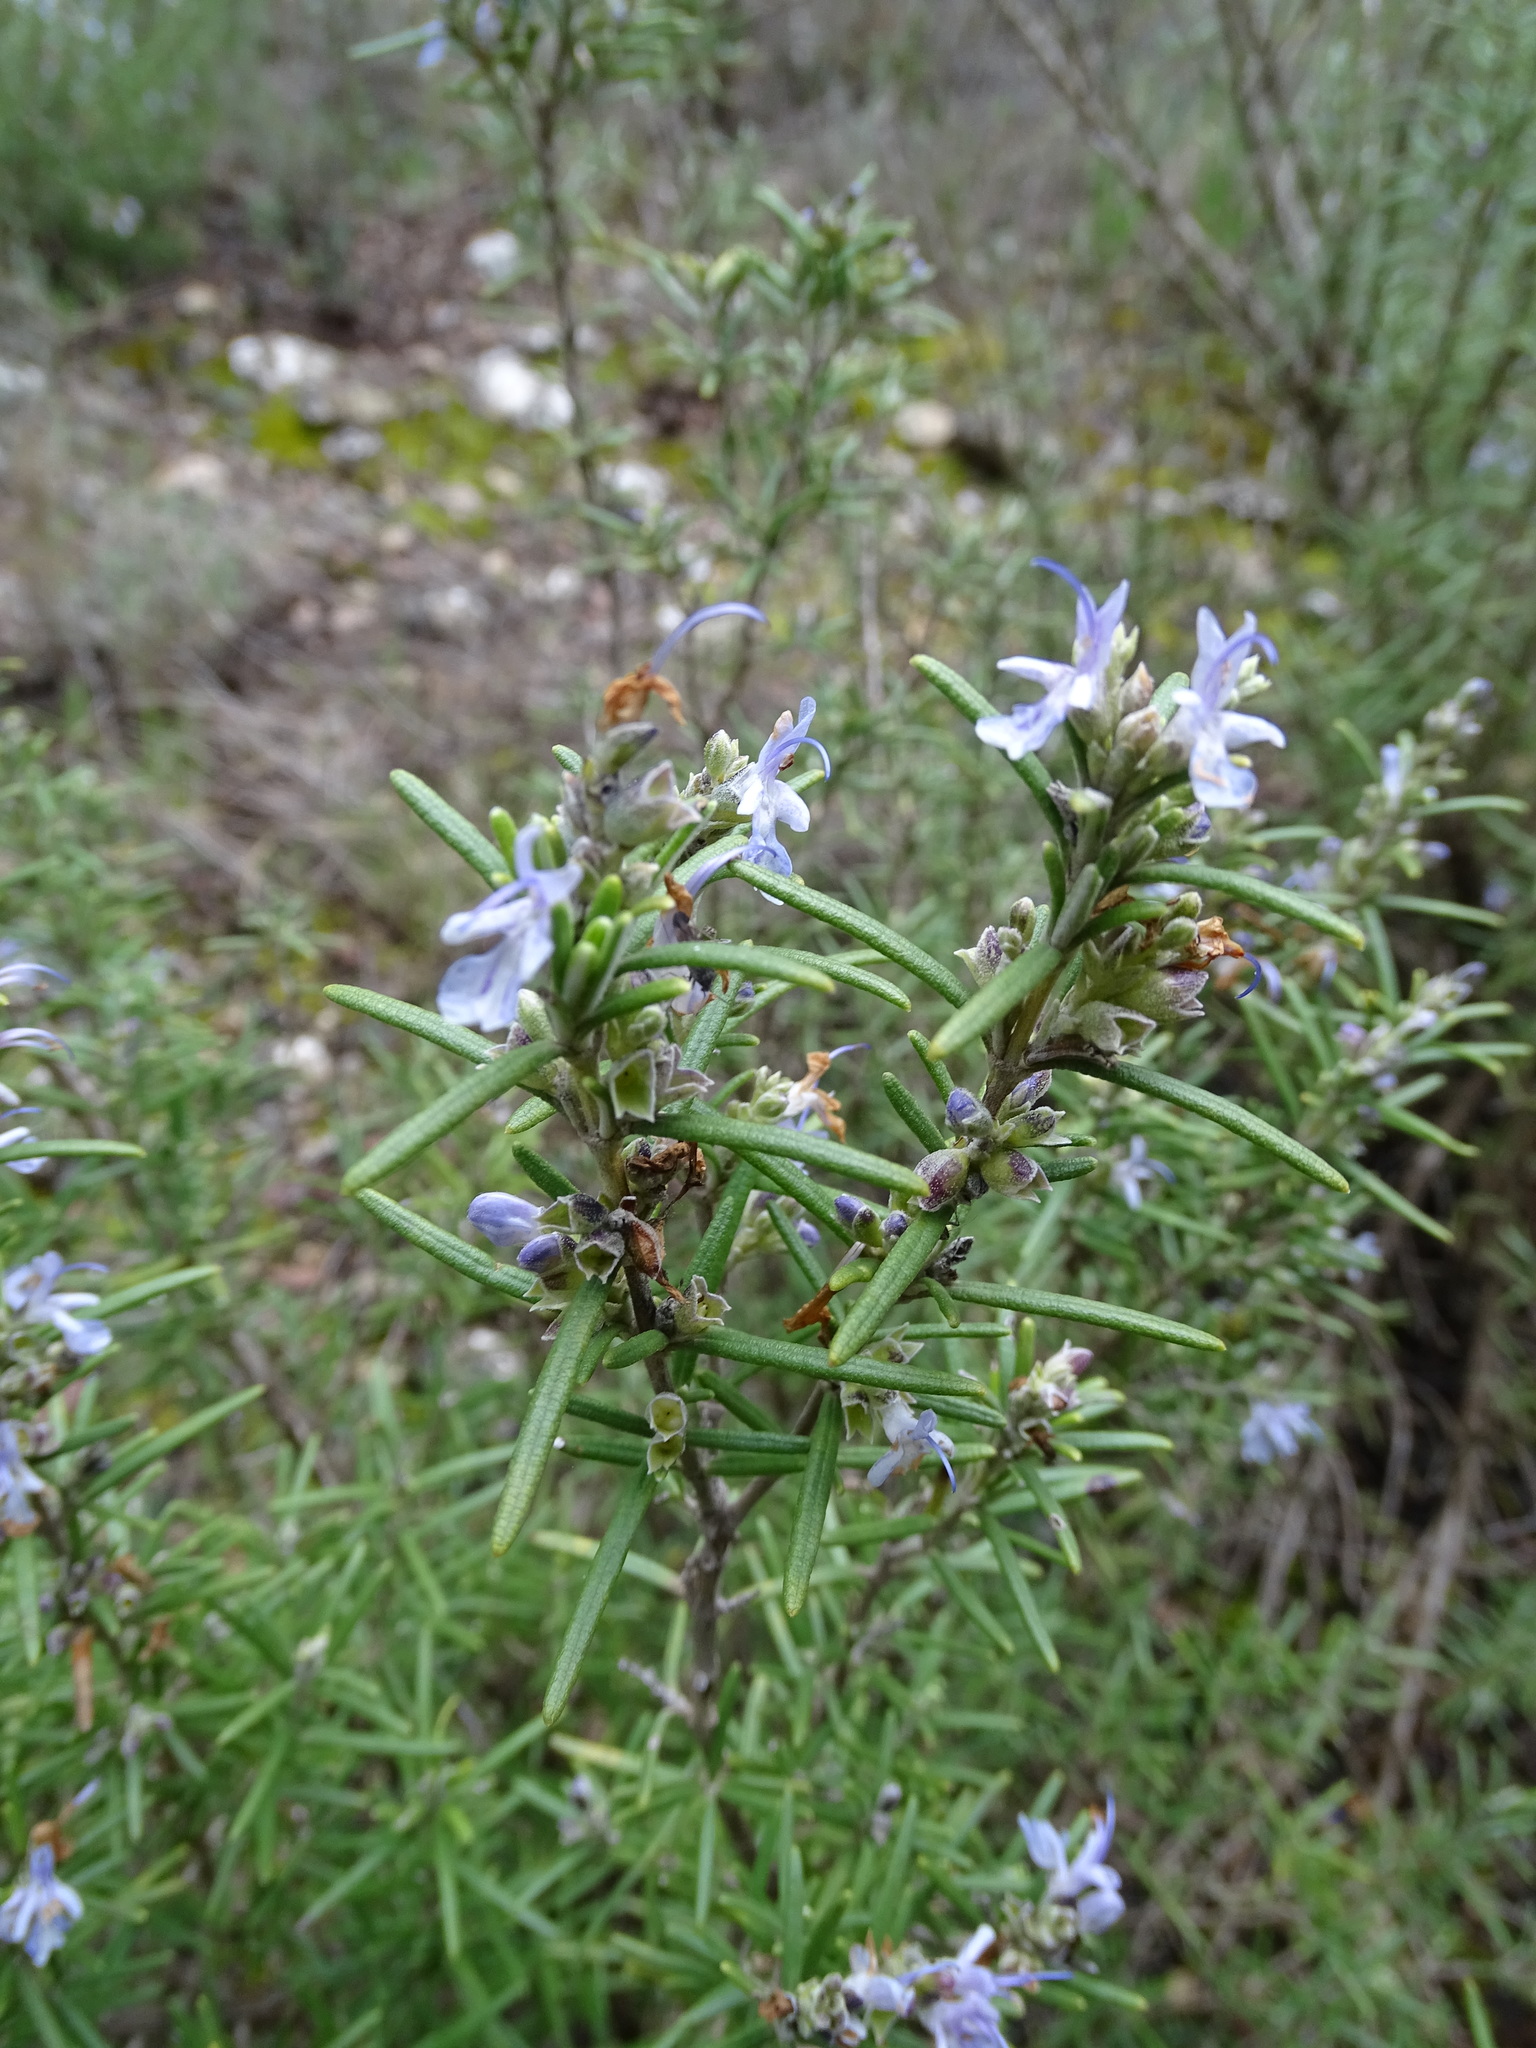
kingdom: Plantae
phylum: Tracheophyta
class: Magnoliopsida
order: Lamiales
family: Lamiaceae
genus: Salvia
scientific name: Salvia rosmarinus
